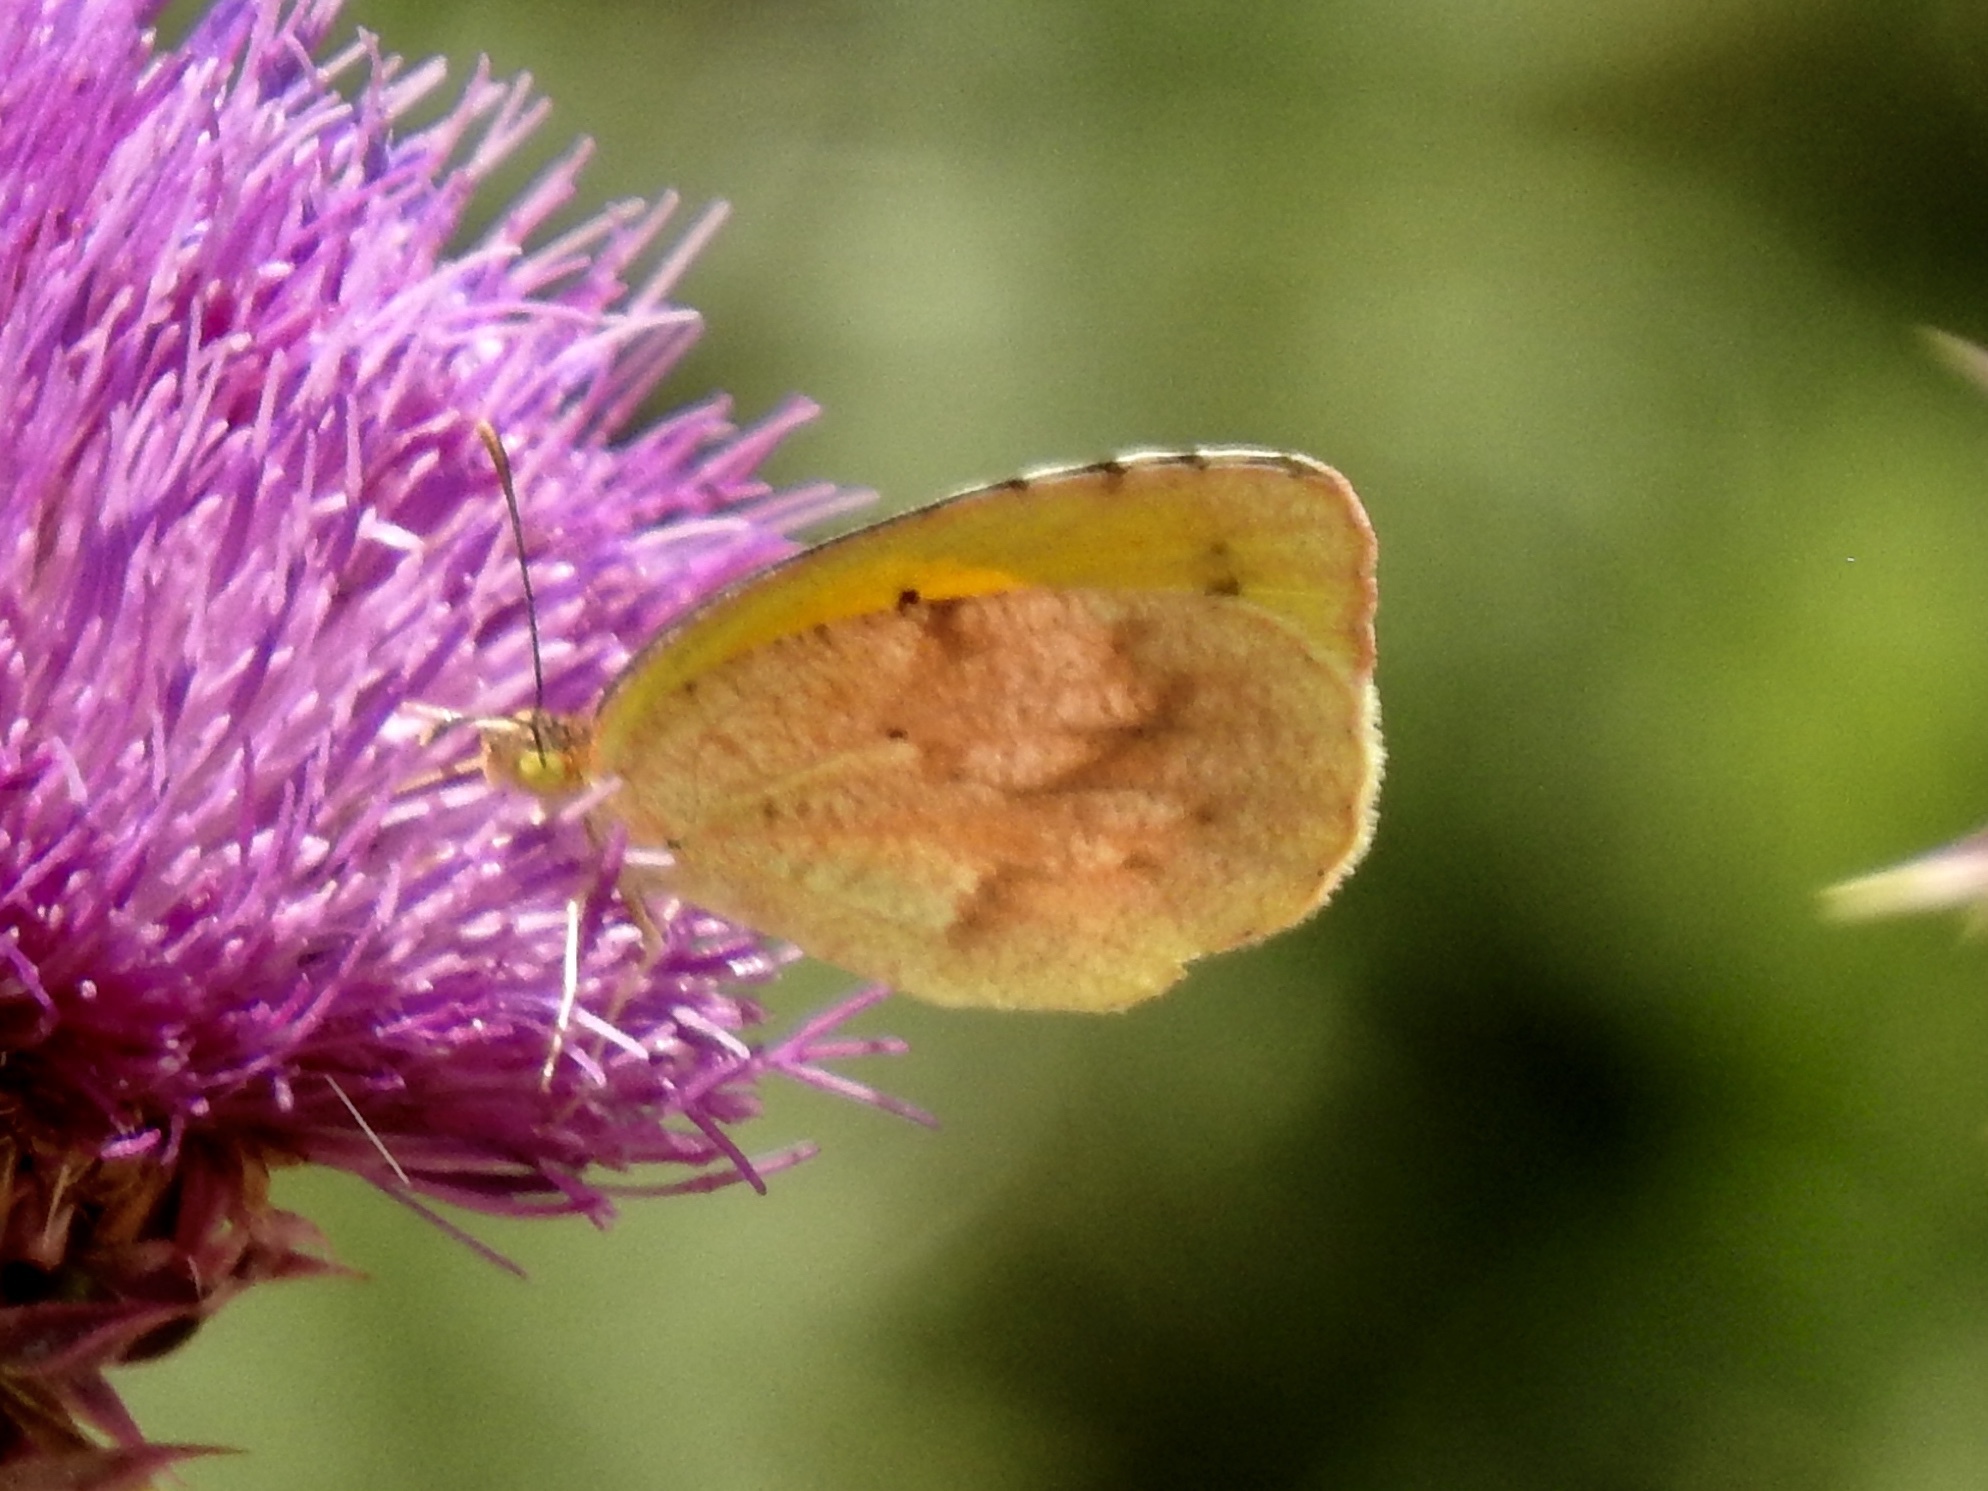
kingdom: Animalia
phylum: Arthropoda
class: Insecta
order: Lepidoptera
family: Pieridae
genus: Abaeis
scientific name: Abaeis nicippe
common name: Sleepy orange
